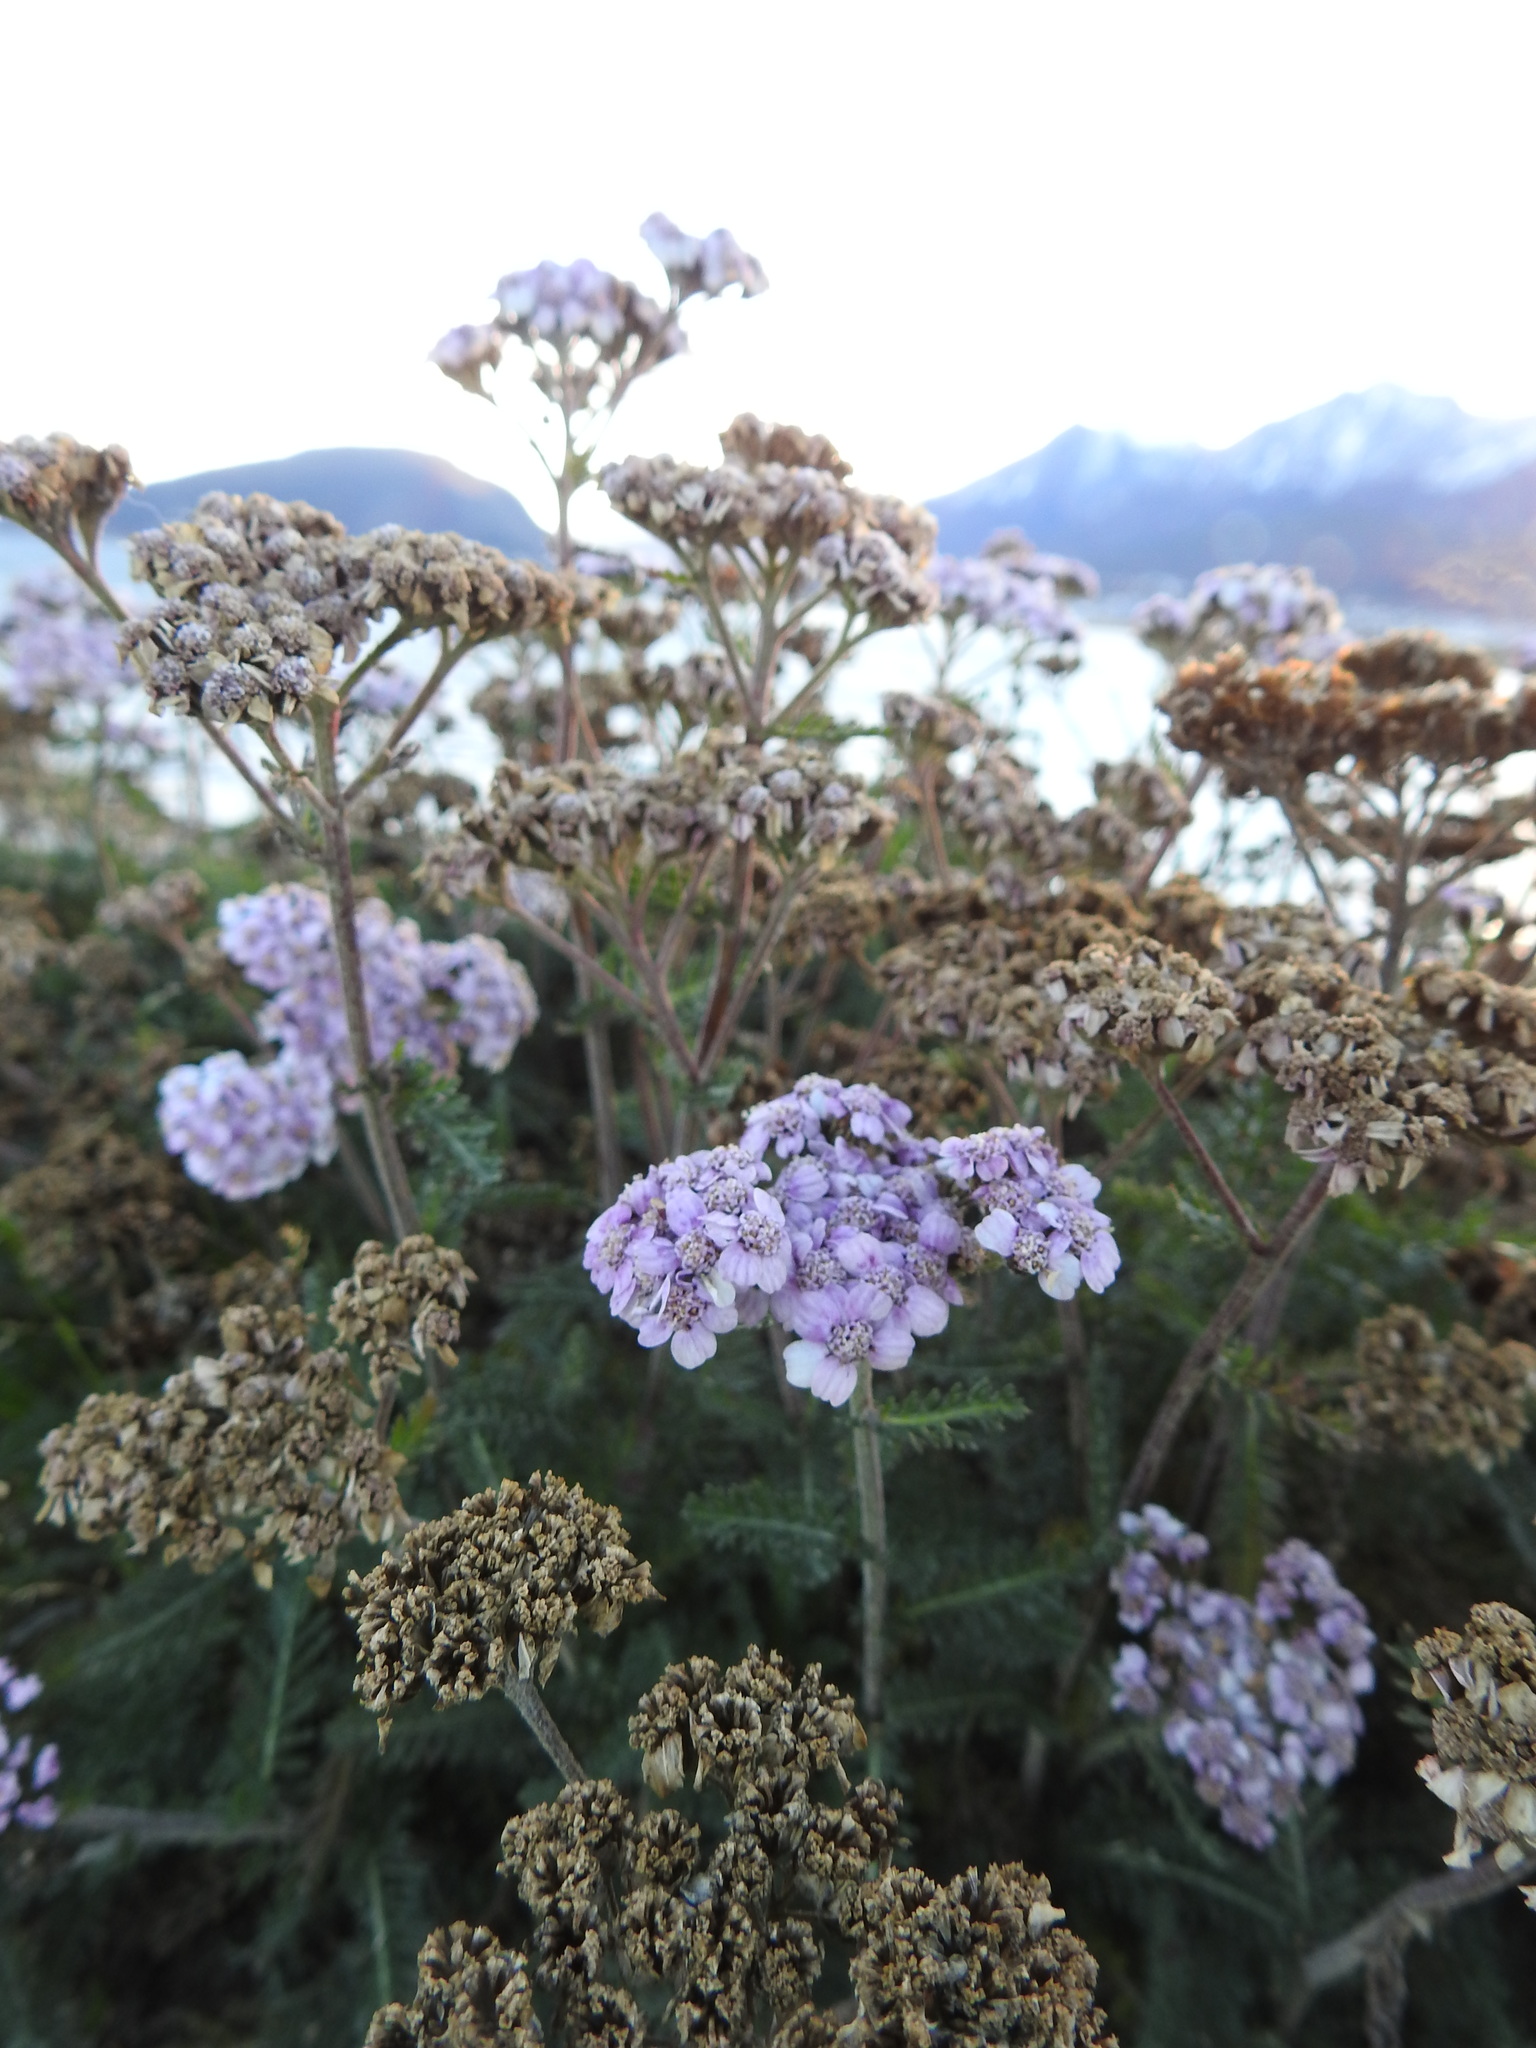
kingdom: Plantae
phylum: Tracheophyta
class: Magnoliopsida
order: Asterales
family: Asteraceae
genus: Achillea
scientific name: Achillea millefolium
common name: Yarrow
